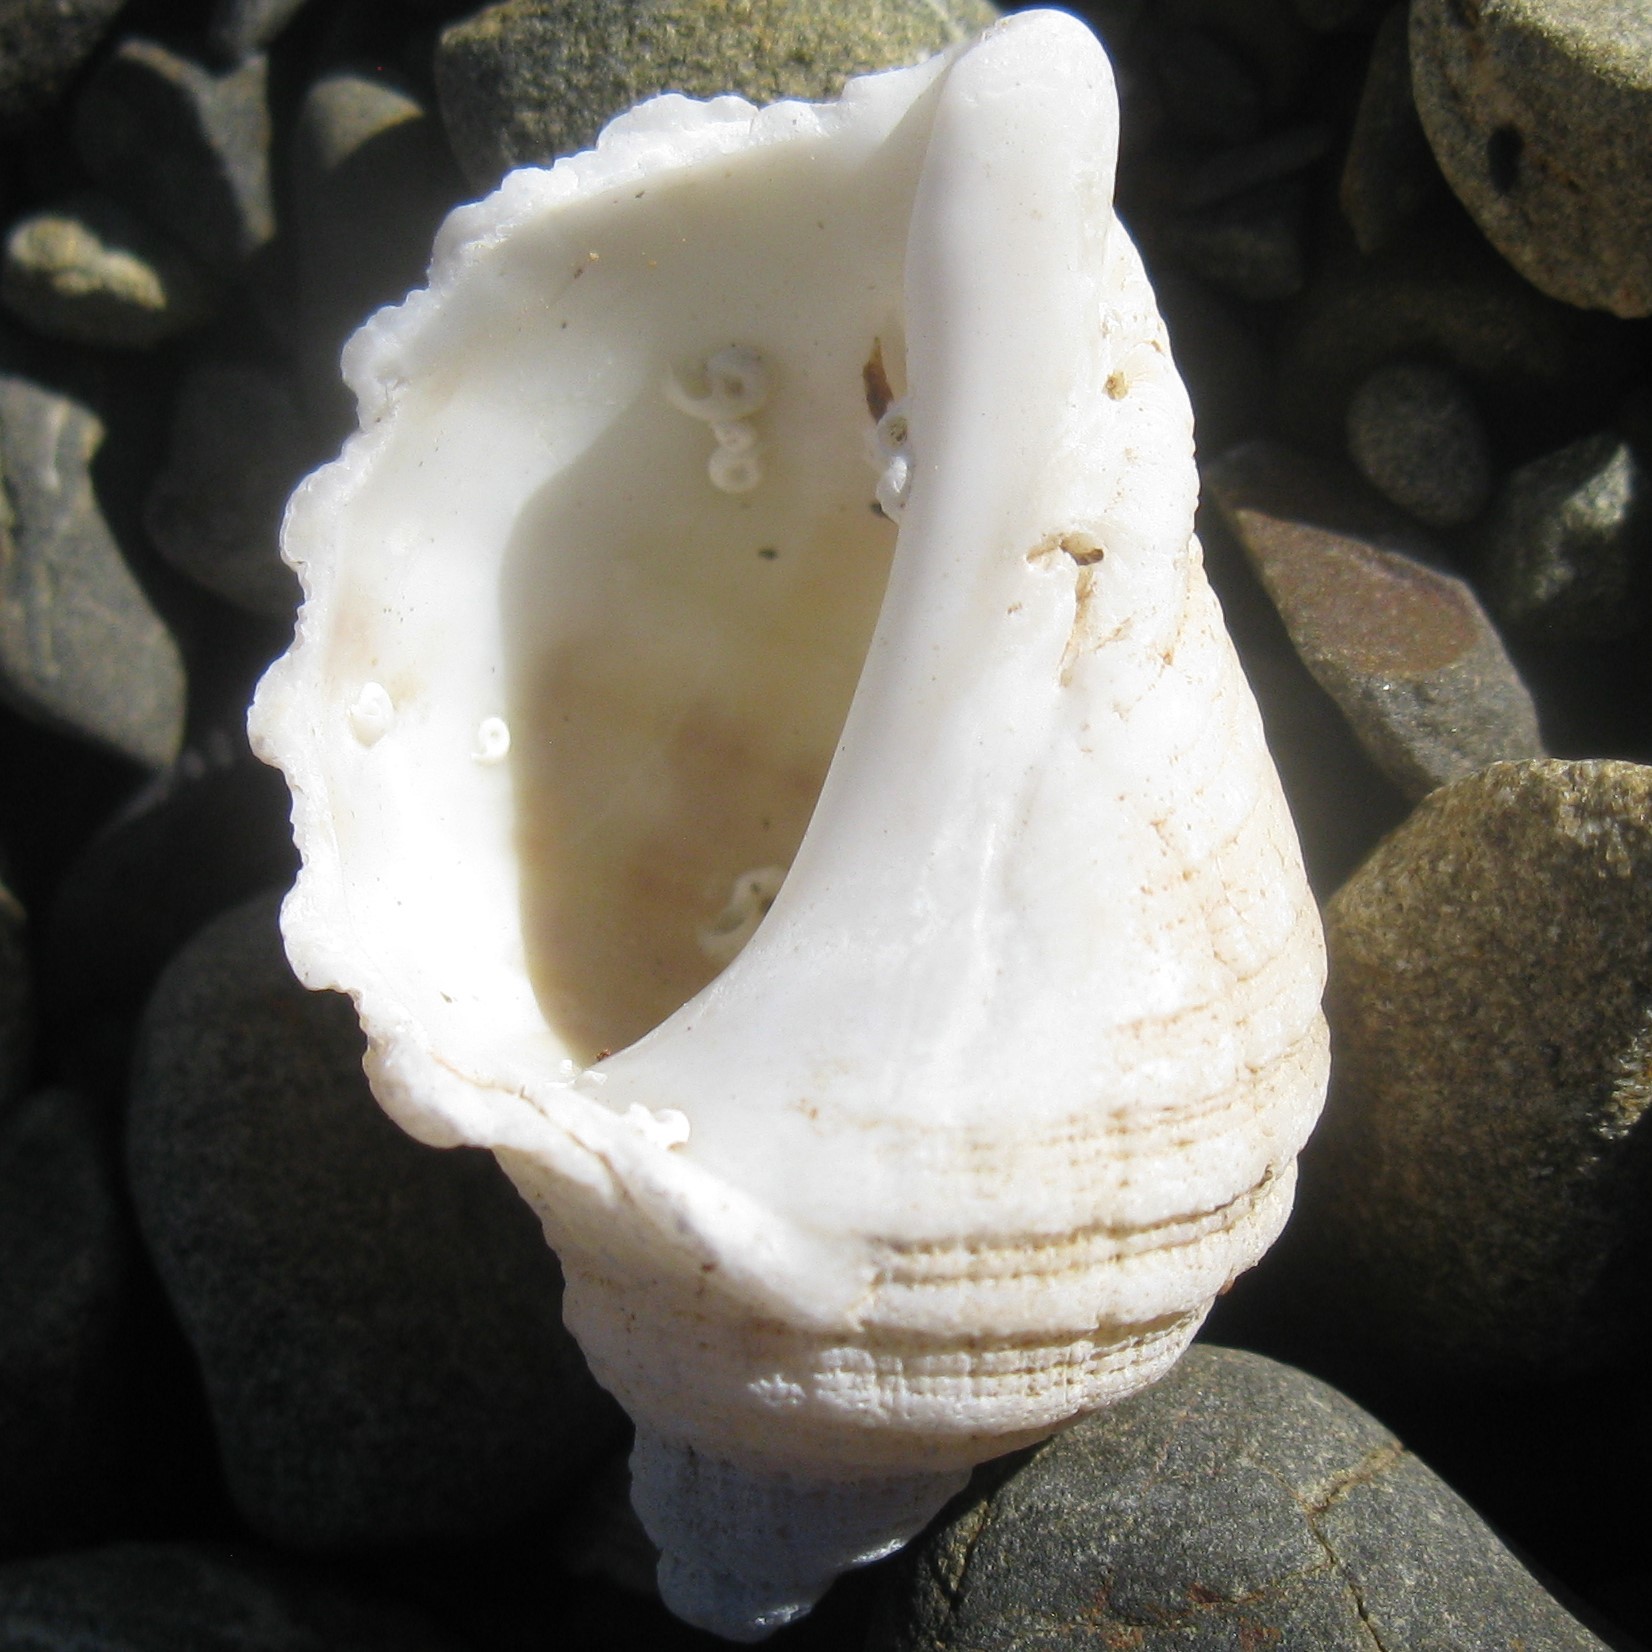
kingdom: Animalia
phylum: Mollusca
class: Gastropoda
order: Neogastropoda
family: Muricidae
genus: Dicathais
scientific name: Dicathais orbita
